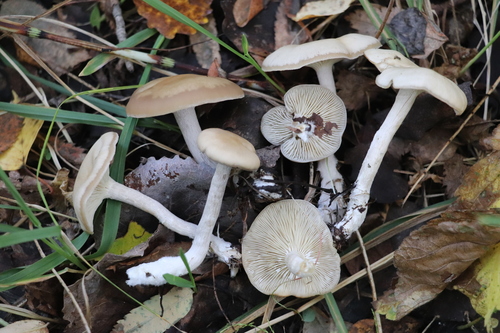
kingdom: Fungi
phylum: Basidiomycota
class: Agaricomycetes
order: Agaricales
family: Tricholomataceae
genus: Clitocybe
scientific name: Clitocybe
